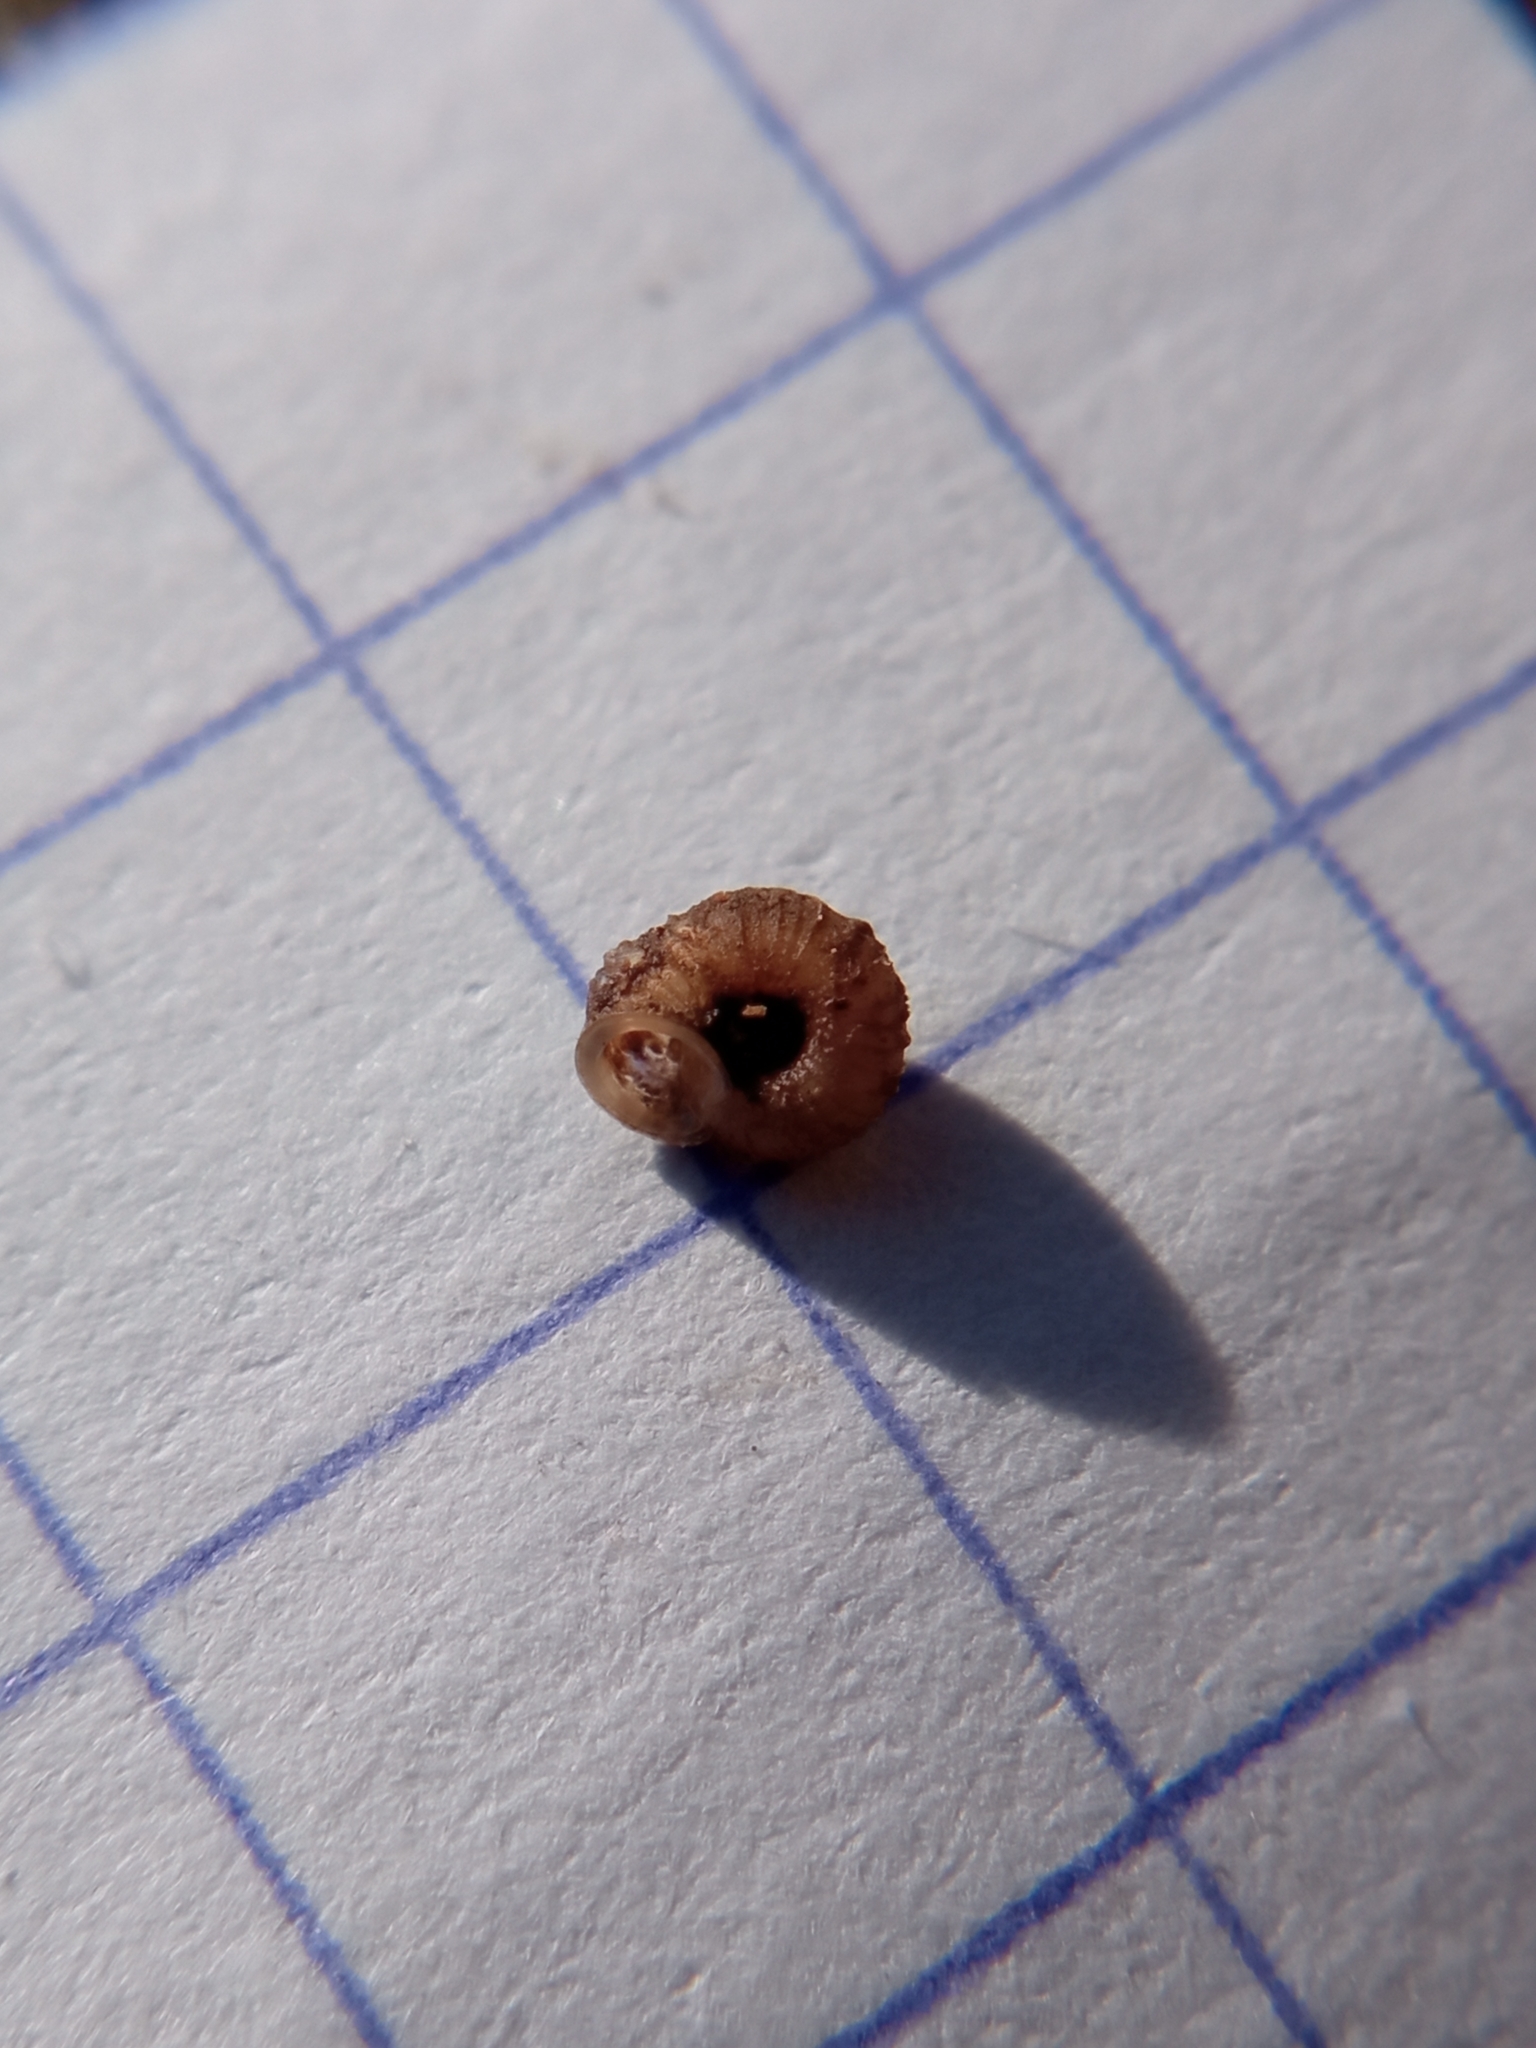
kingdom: Animalia
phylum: Mollusca
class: Gastropoda
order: Stylommatophora
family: Valloniidae
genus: Vallonia
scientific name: Vallonia costata
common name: Ribbed grass snail
